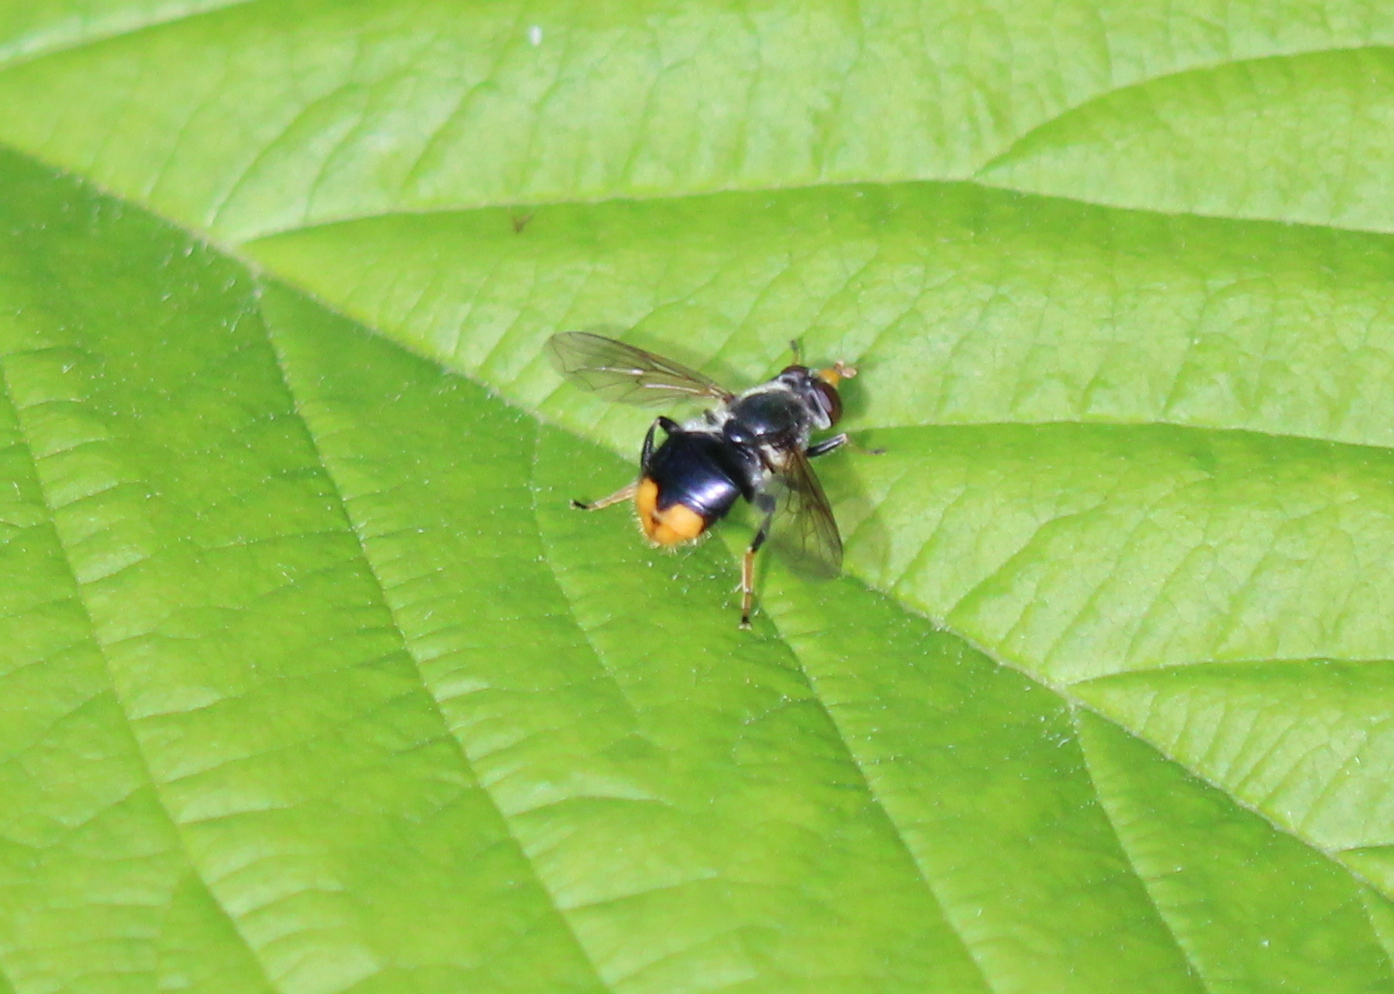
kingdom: Animalia
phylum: Arthropoda
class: Insecta
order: Diptera
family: Syrphidae
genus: Blera
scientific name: Blera analis
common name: Orange-tailed wood fly
